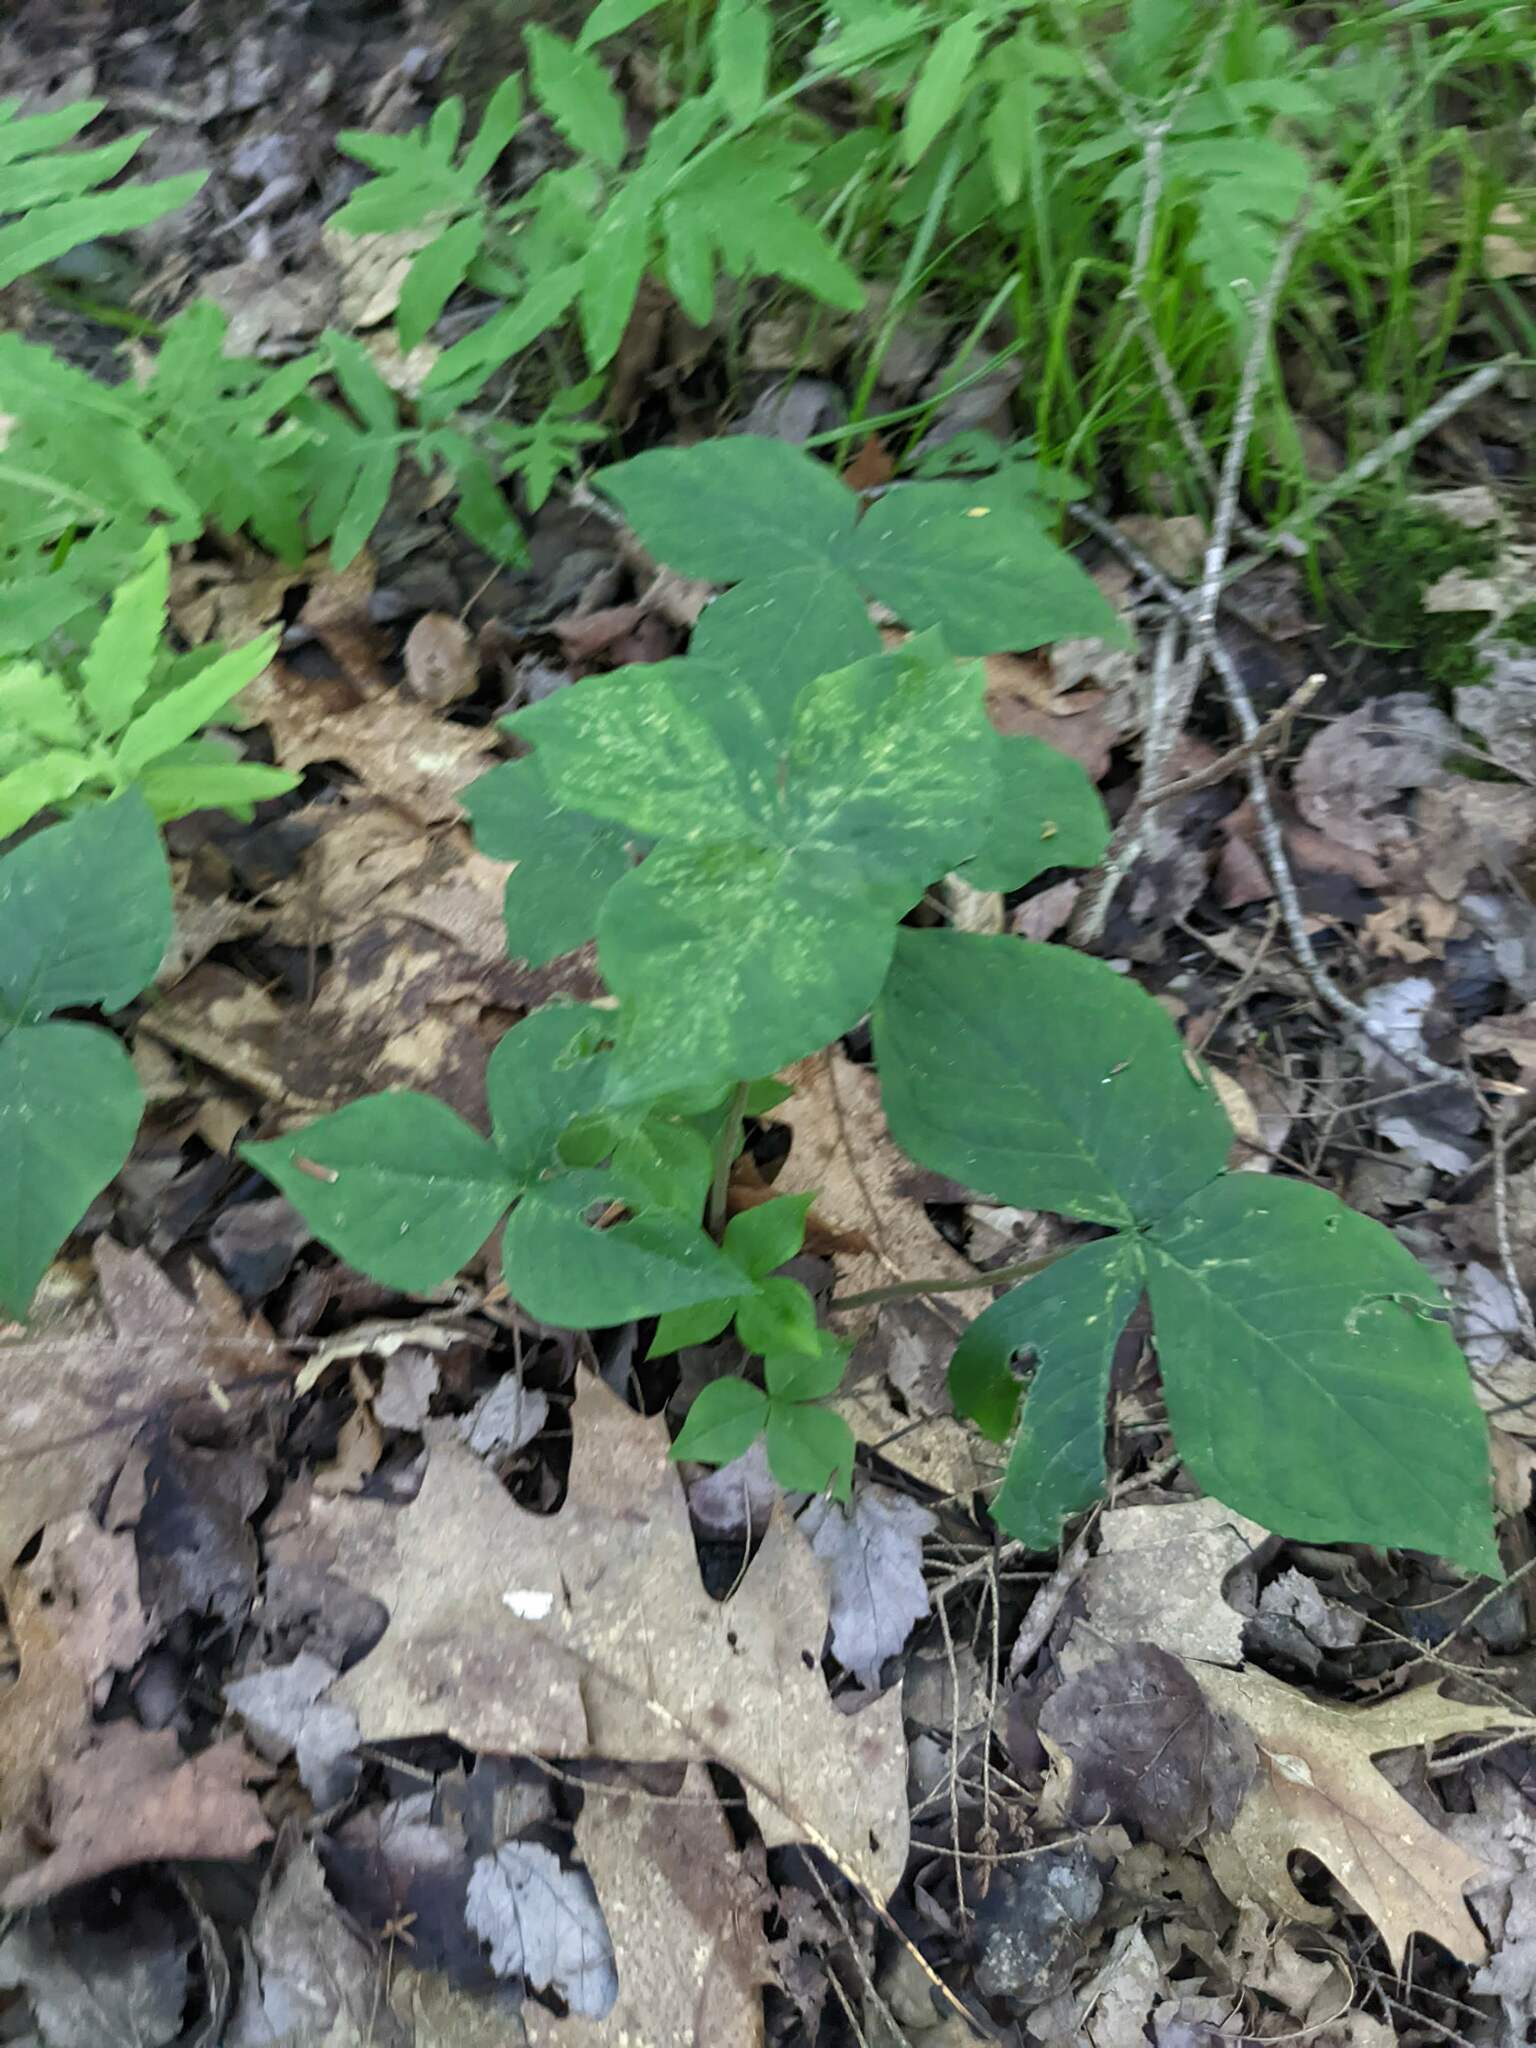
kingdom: Plantae
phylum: Tracheophyta
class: Liliopsida
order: Alismatales
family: Araceae
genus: Arisaema
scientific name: Arisaema triphyllum
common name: Jack-in-the-pulpit
